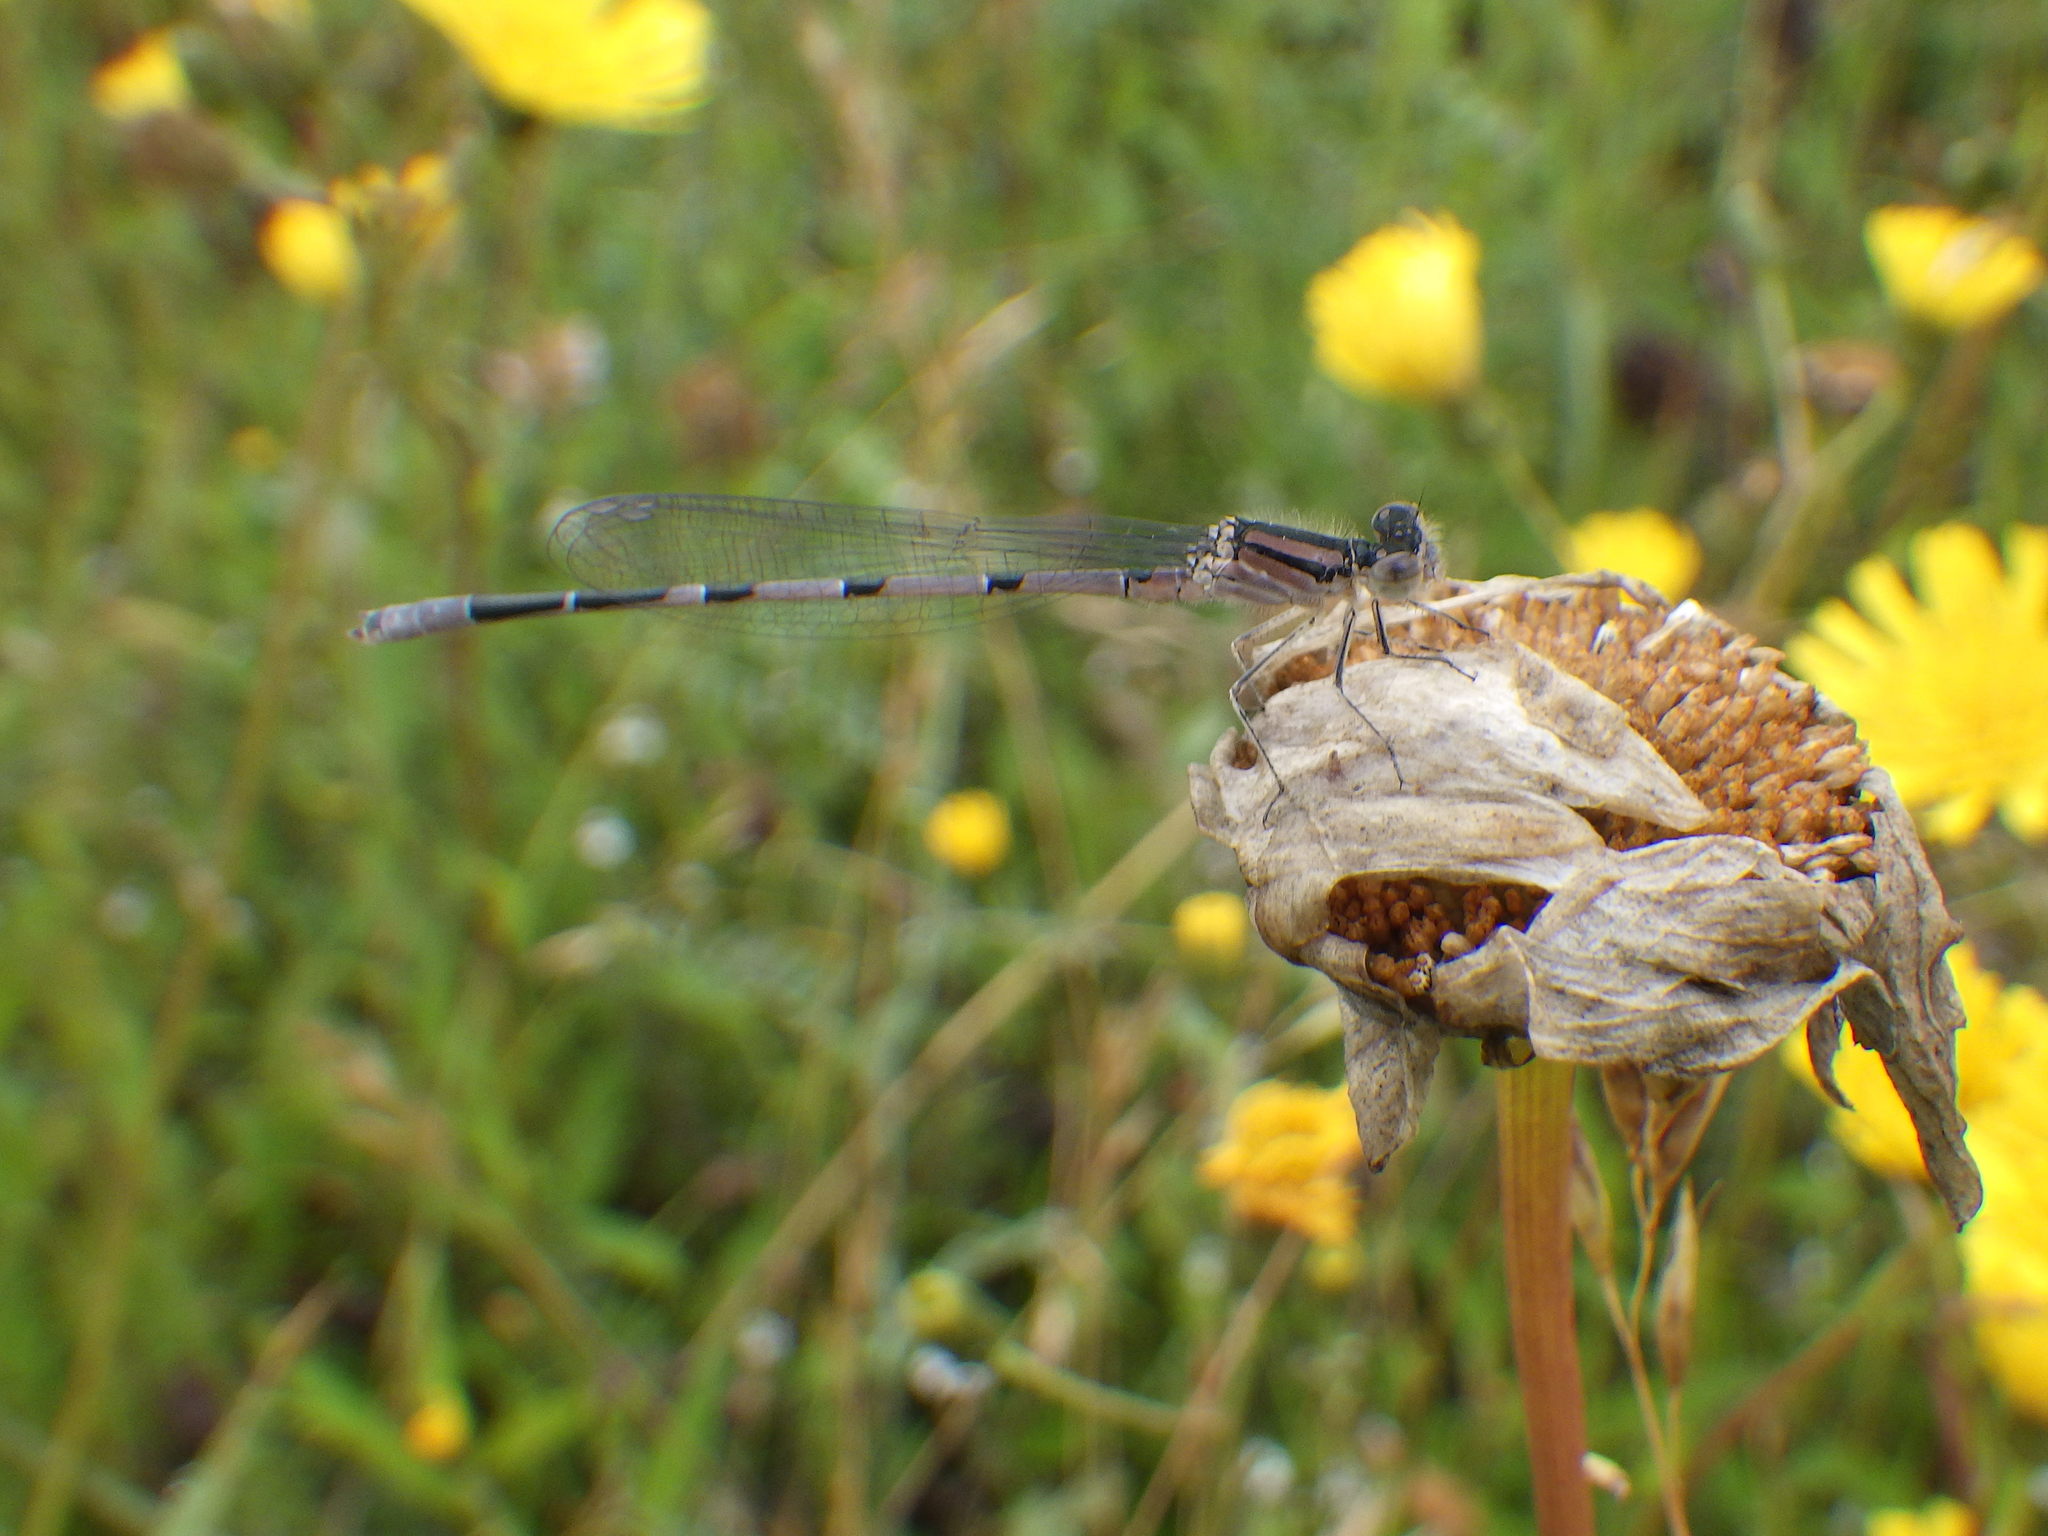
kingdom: Animalia
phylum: Arthropoda
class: Insecta
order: Odonata
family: Coenagrionidae
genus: Enallagma
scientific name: Enallagma civile
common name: Damselfly
